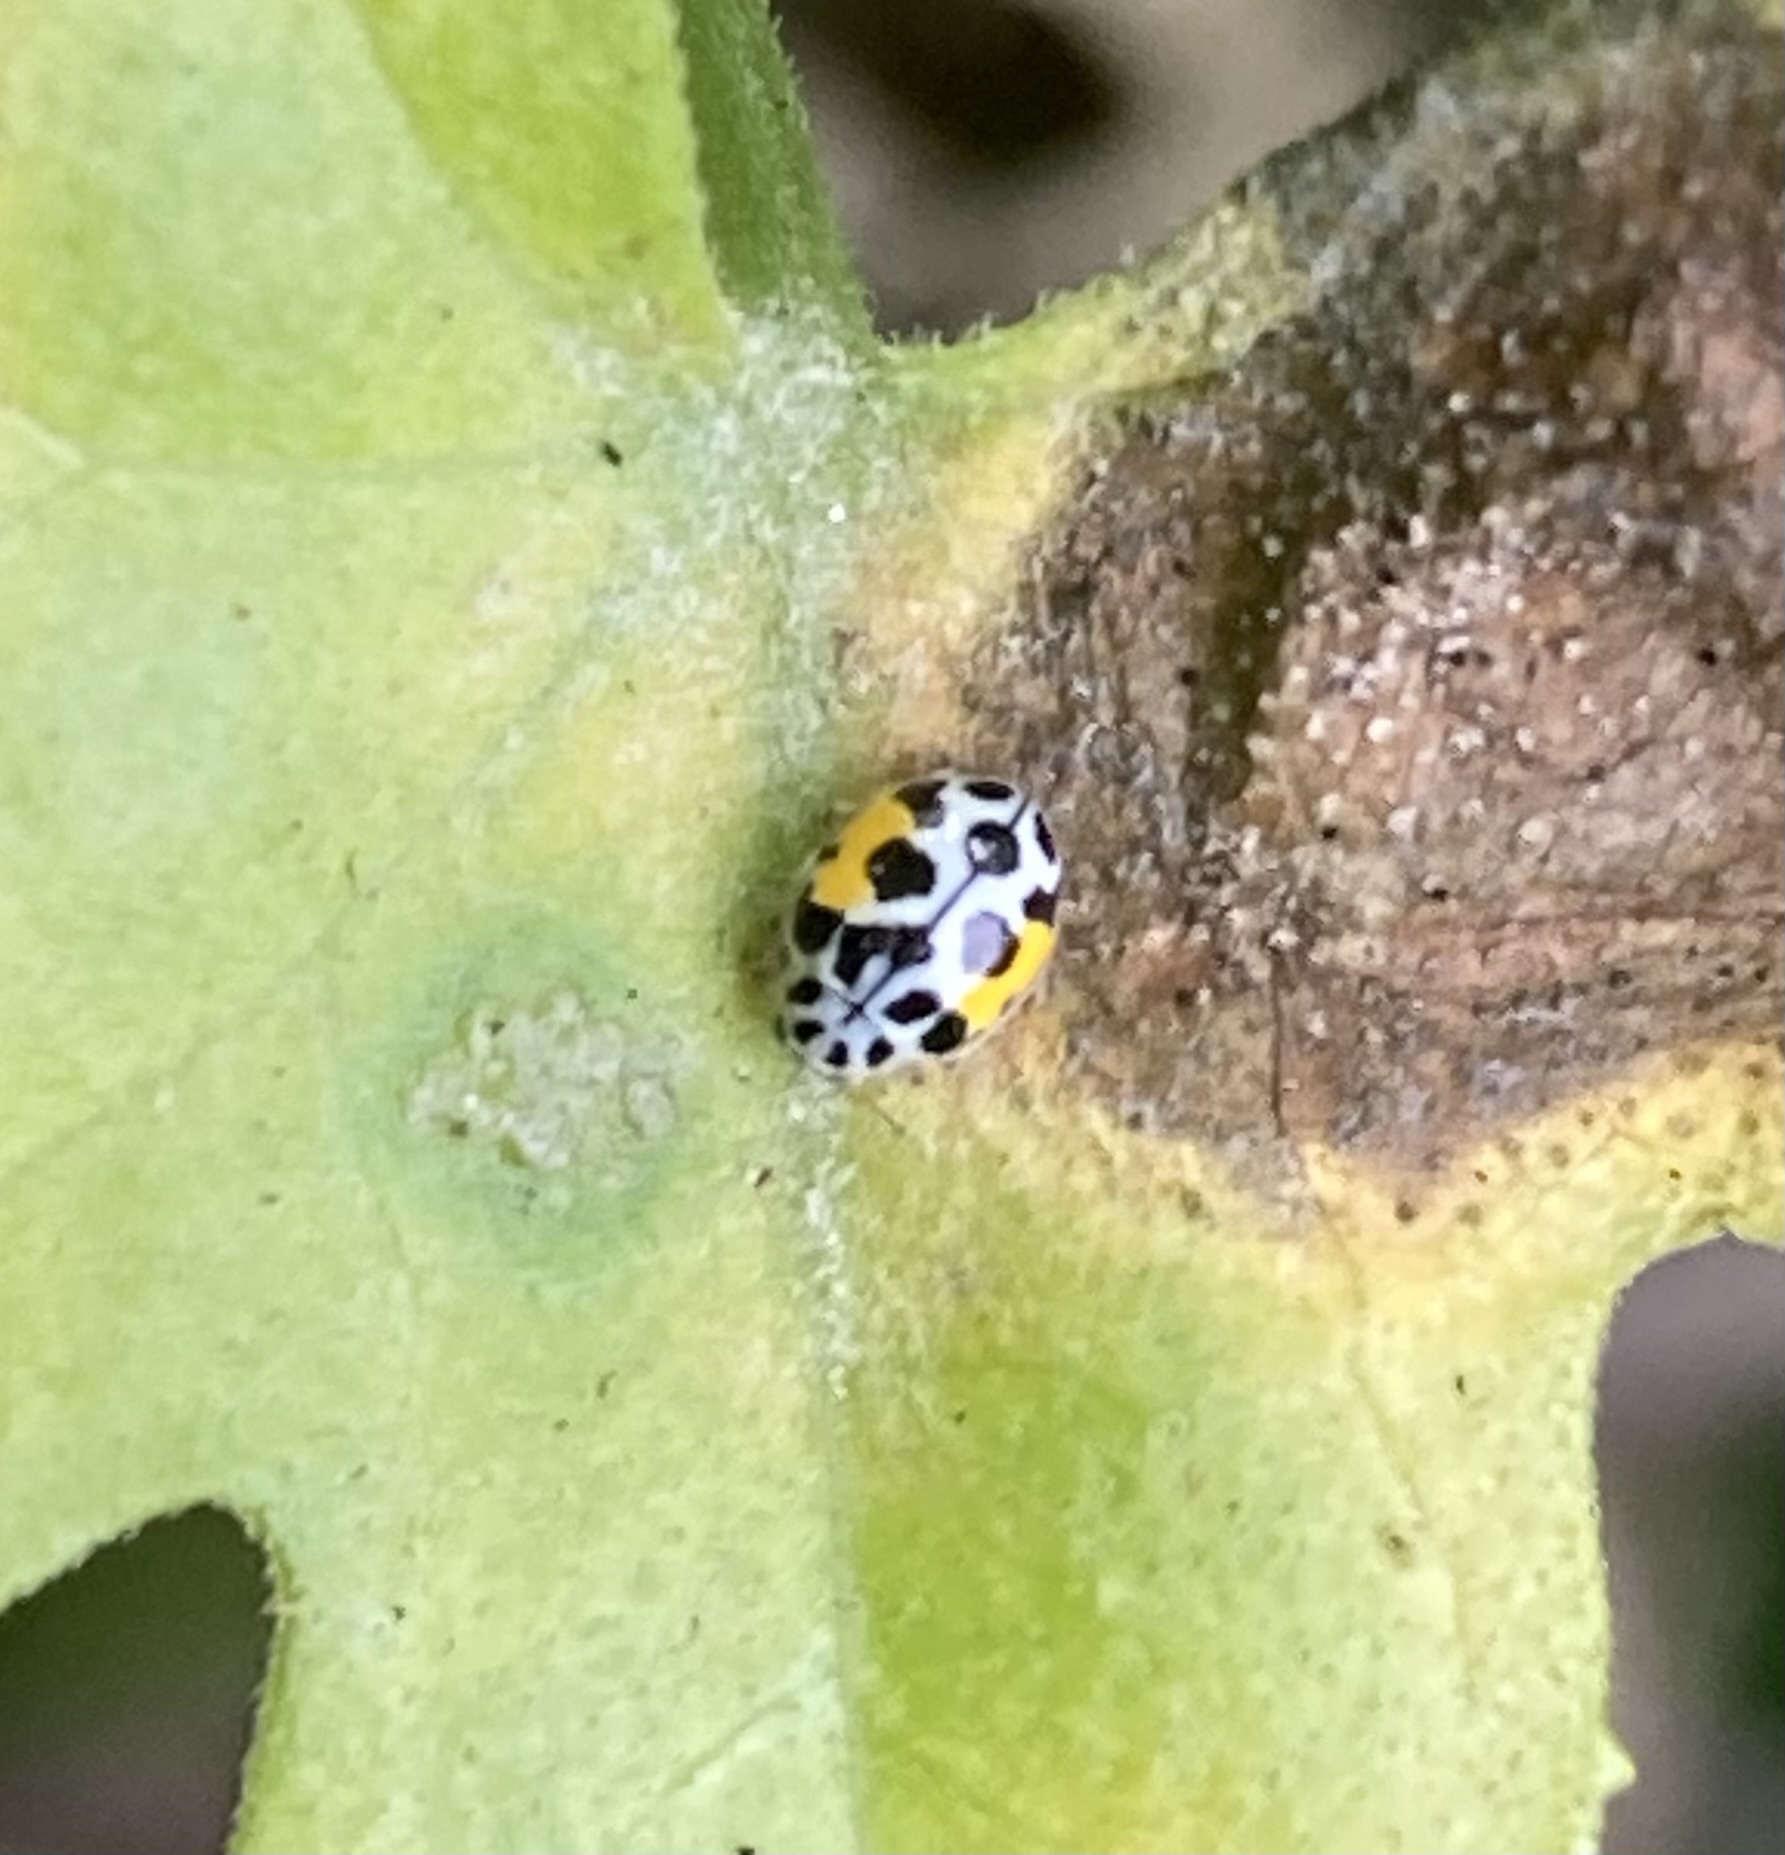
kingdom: Animalia
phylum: Arthropoda
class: Insecta
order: Coleoptera
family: Coccinellidae
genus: Psyllobora
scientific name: Psyllobora nana
